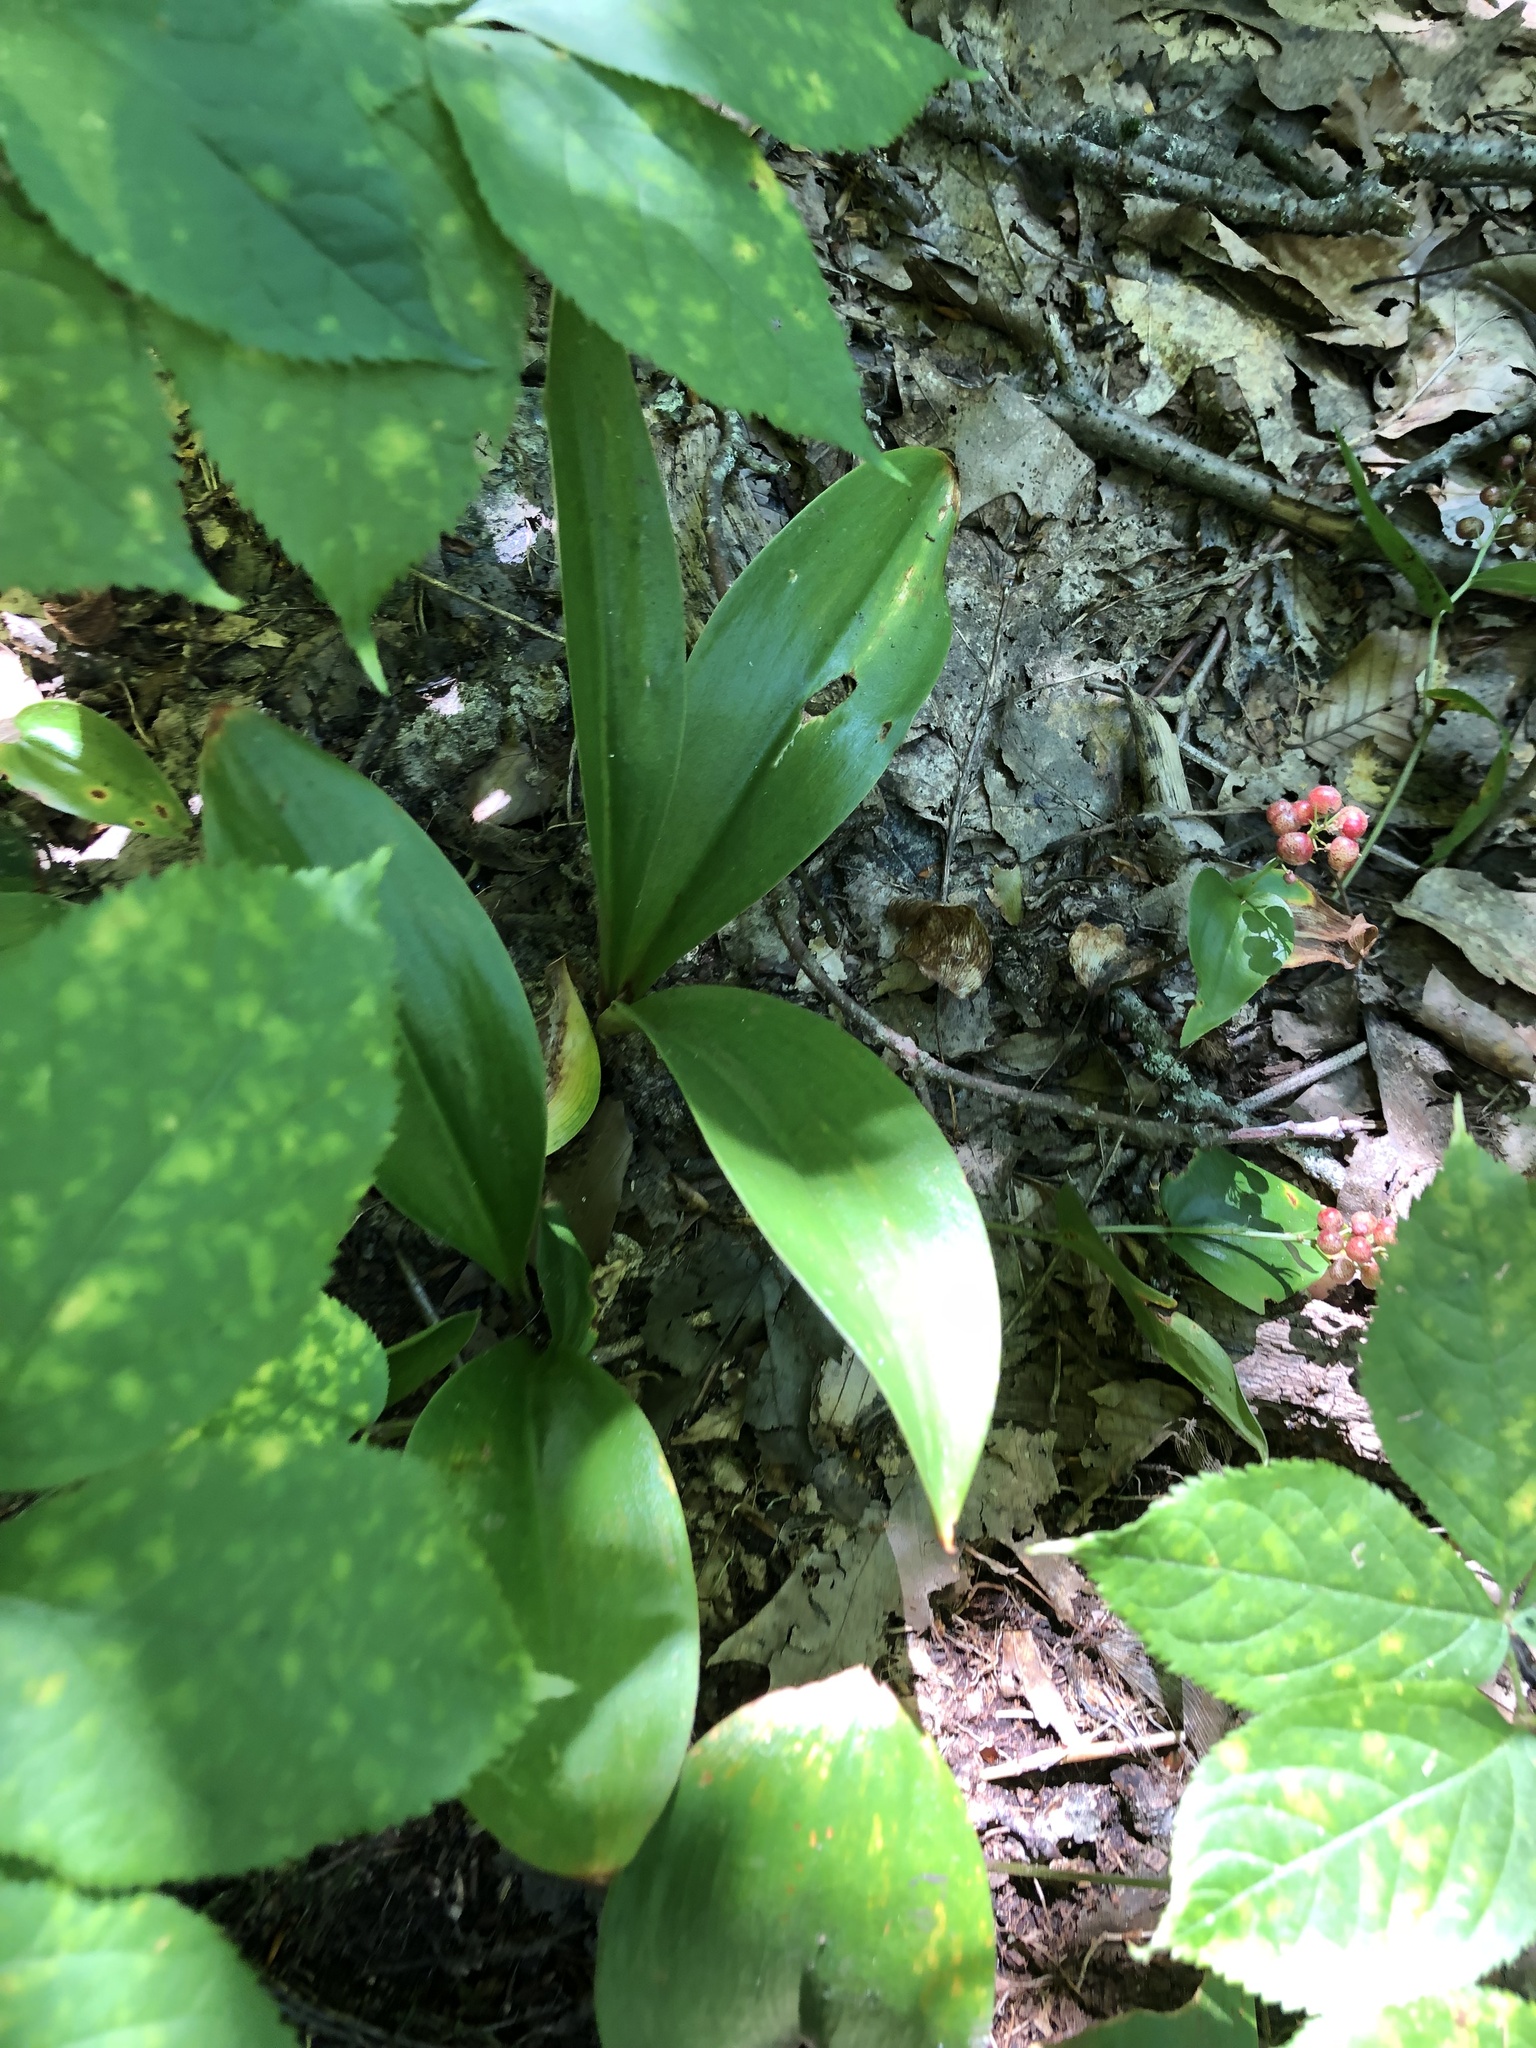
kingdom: Plantae
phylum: Tracheophyta
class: Liliopsida
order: Liliales
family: Liliaceae
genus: Clintonia
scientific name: Clintonia borealis
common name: Yellow clintonia
